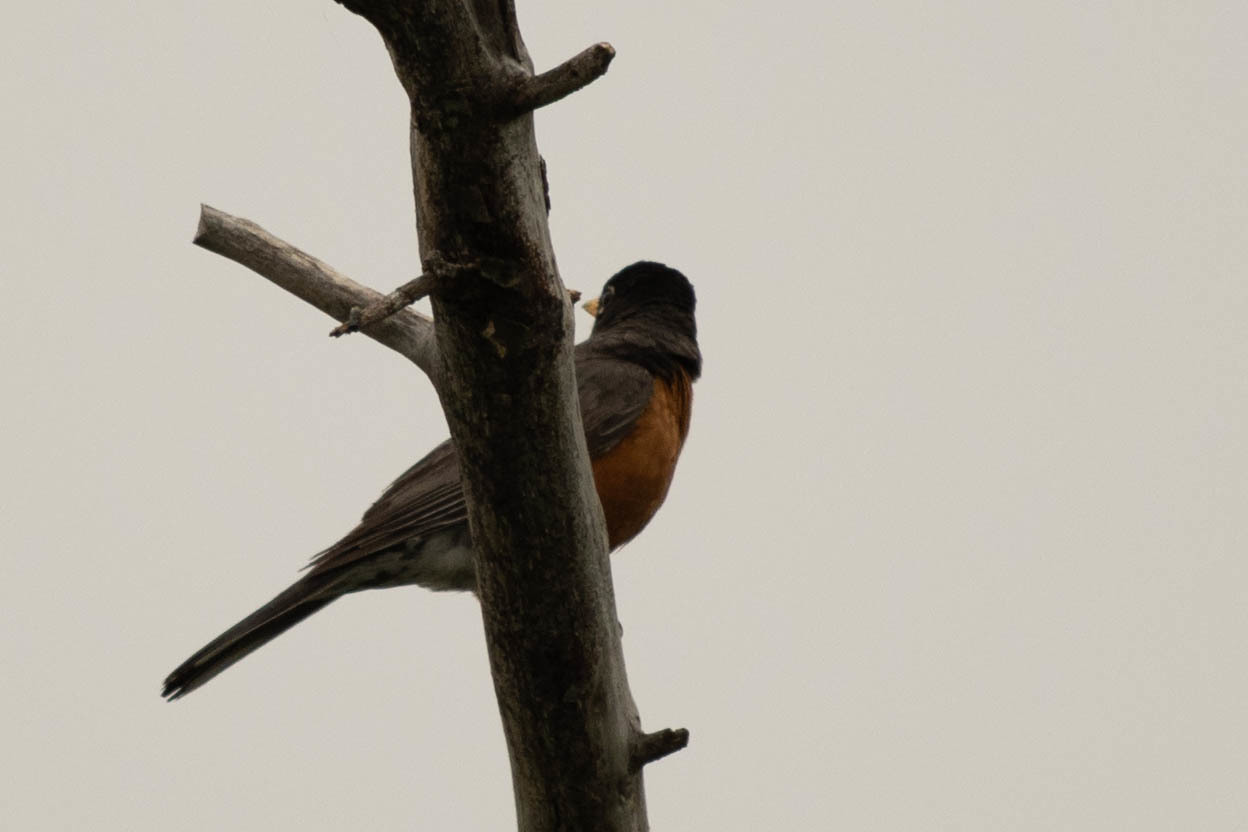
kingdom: Animalia
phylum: Chordata
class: Aves
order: Passeriformes
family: Turdidae
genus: Turdus
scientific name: Turdus migratorius
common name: American robin
